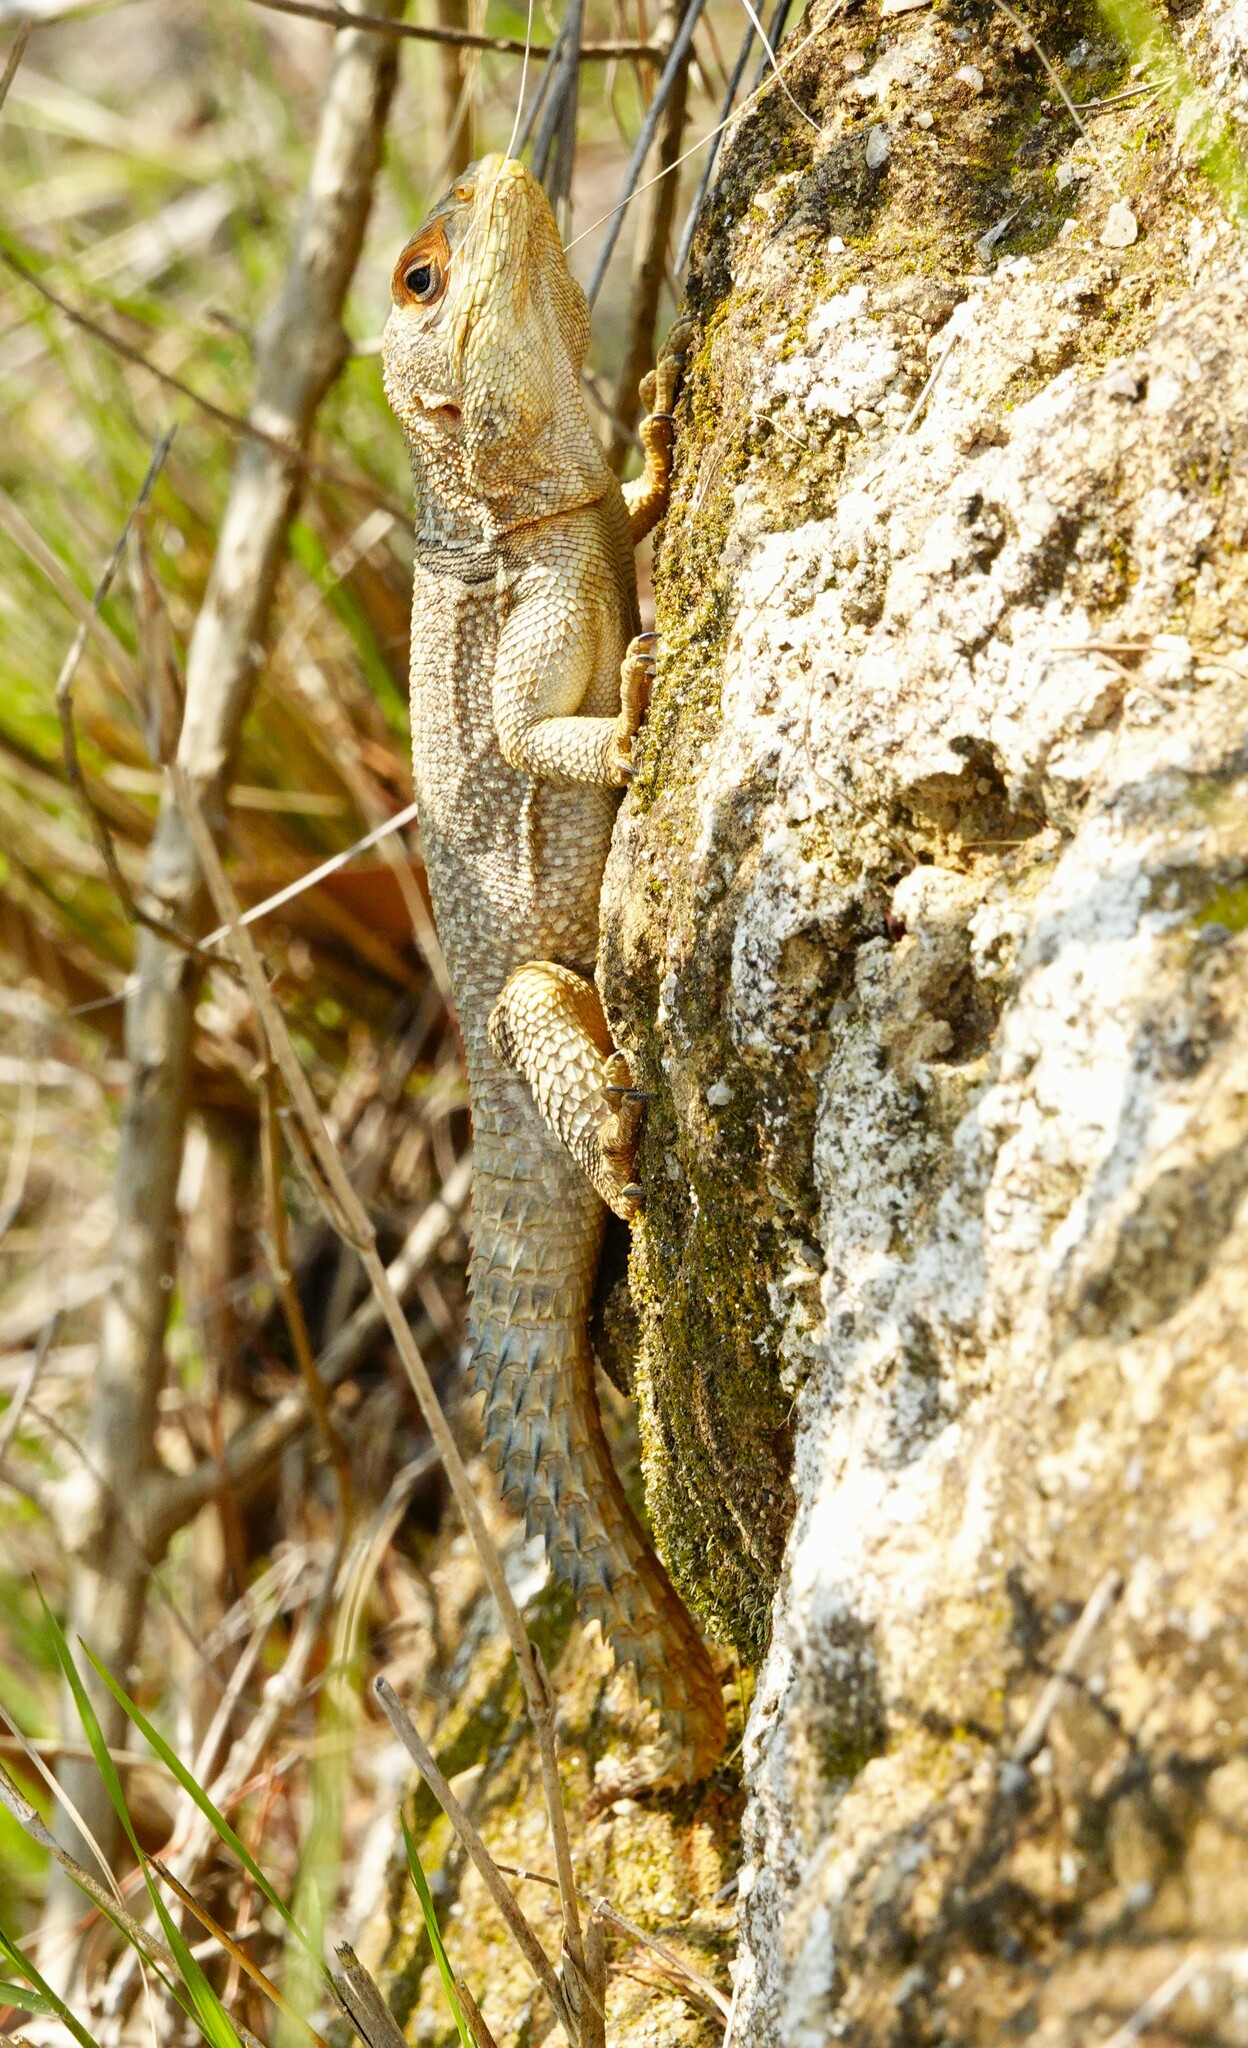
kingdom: Animalia
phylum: Chordata
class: Squamata
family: Opluridae
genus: Oplurus
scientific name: Oplurus cuvieri
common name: Cuvier's madagascar swift
